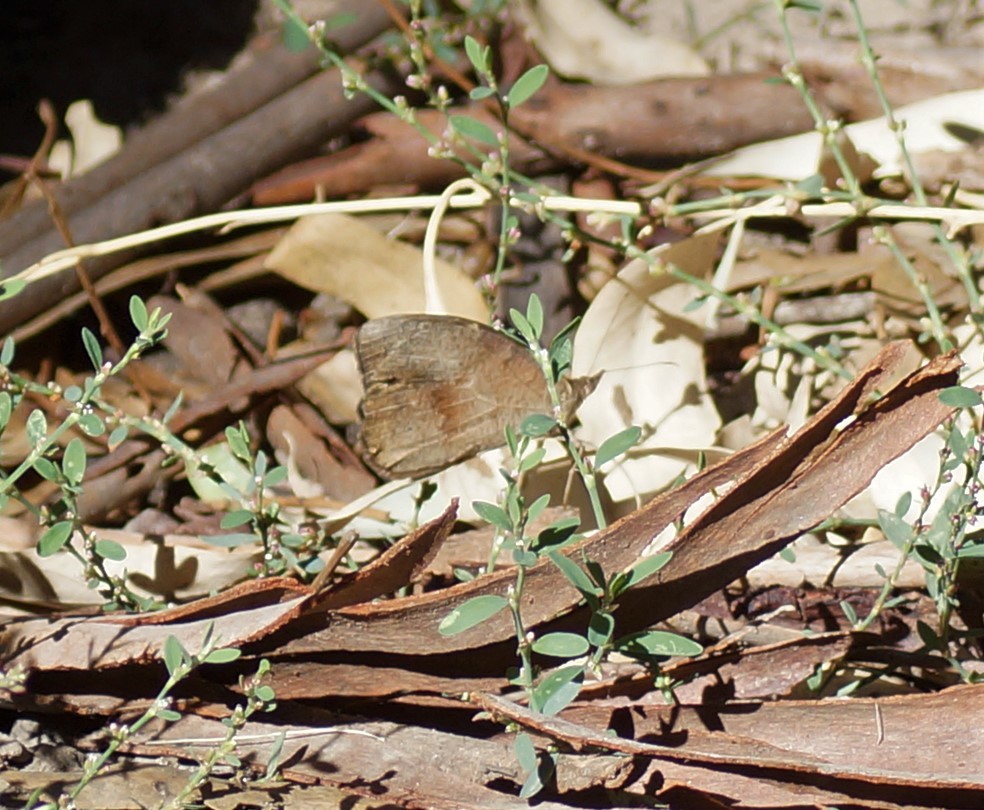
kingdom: Animalia
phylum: Arthropoda
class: Insecta
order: Lepidoptera
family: Nymphalidae
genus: Heteronympha
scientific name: Heteronympha merope
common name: Common brown
